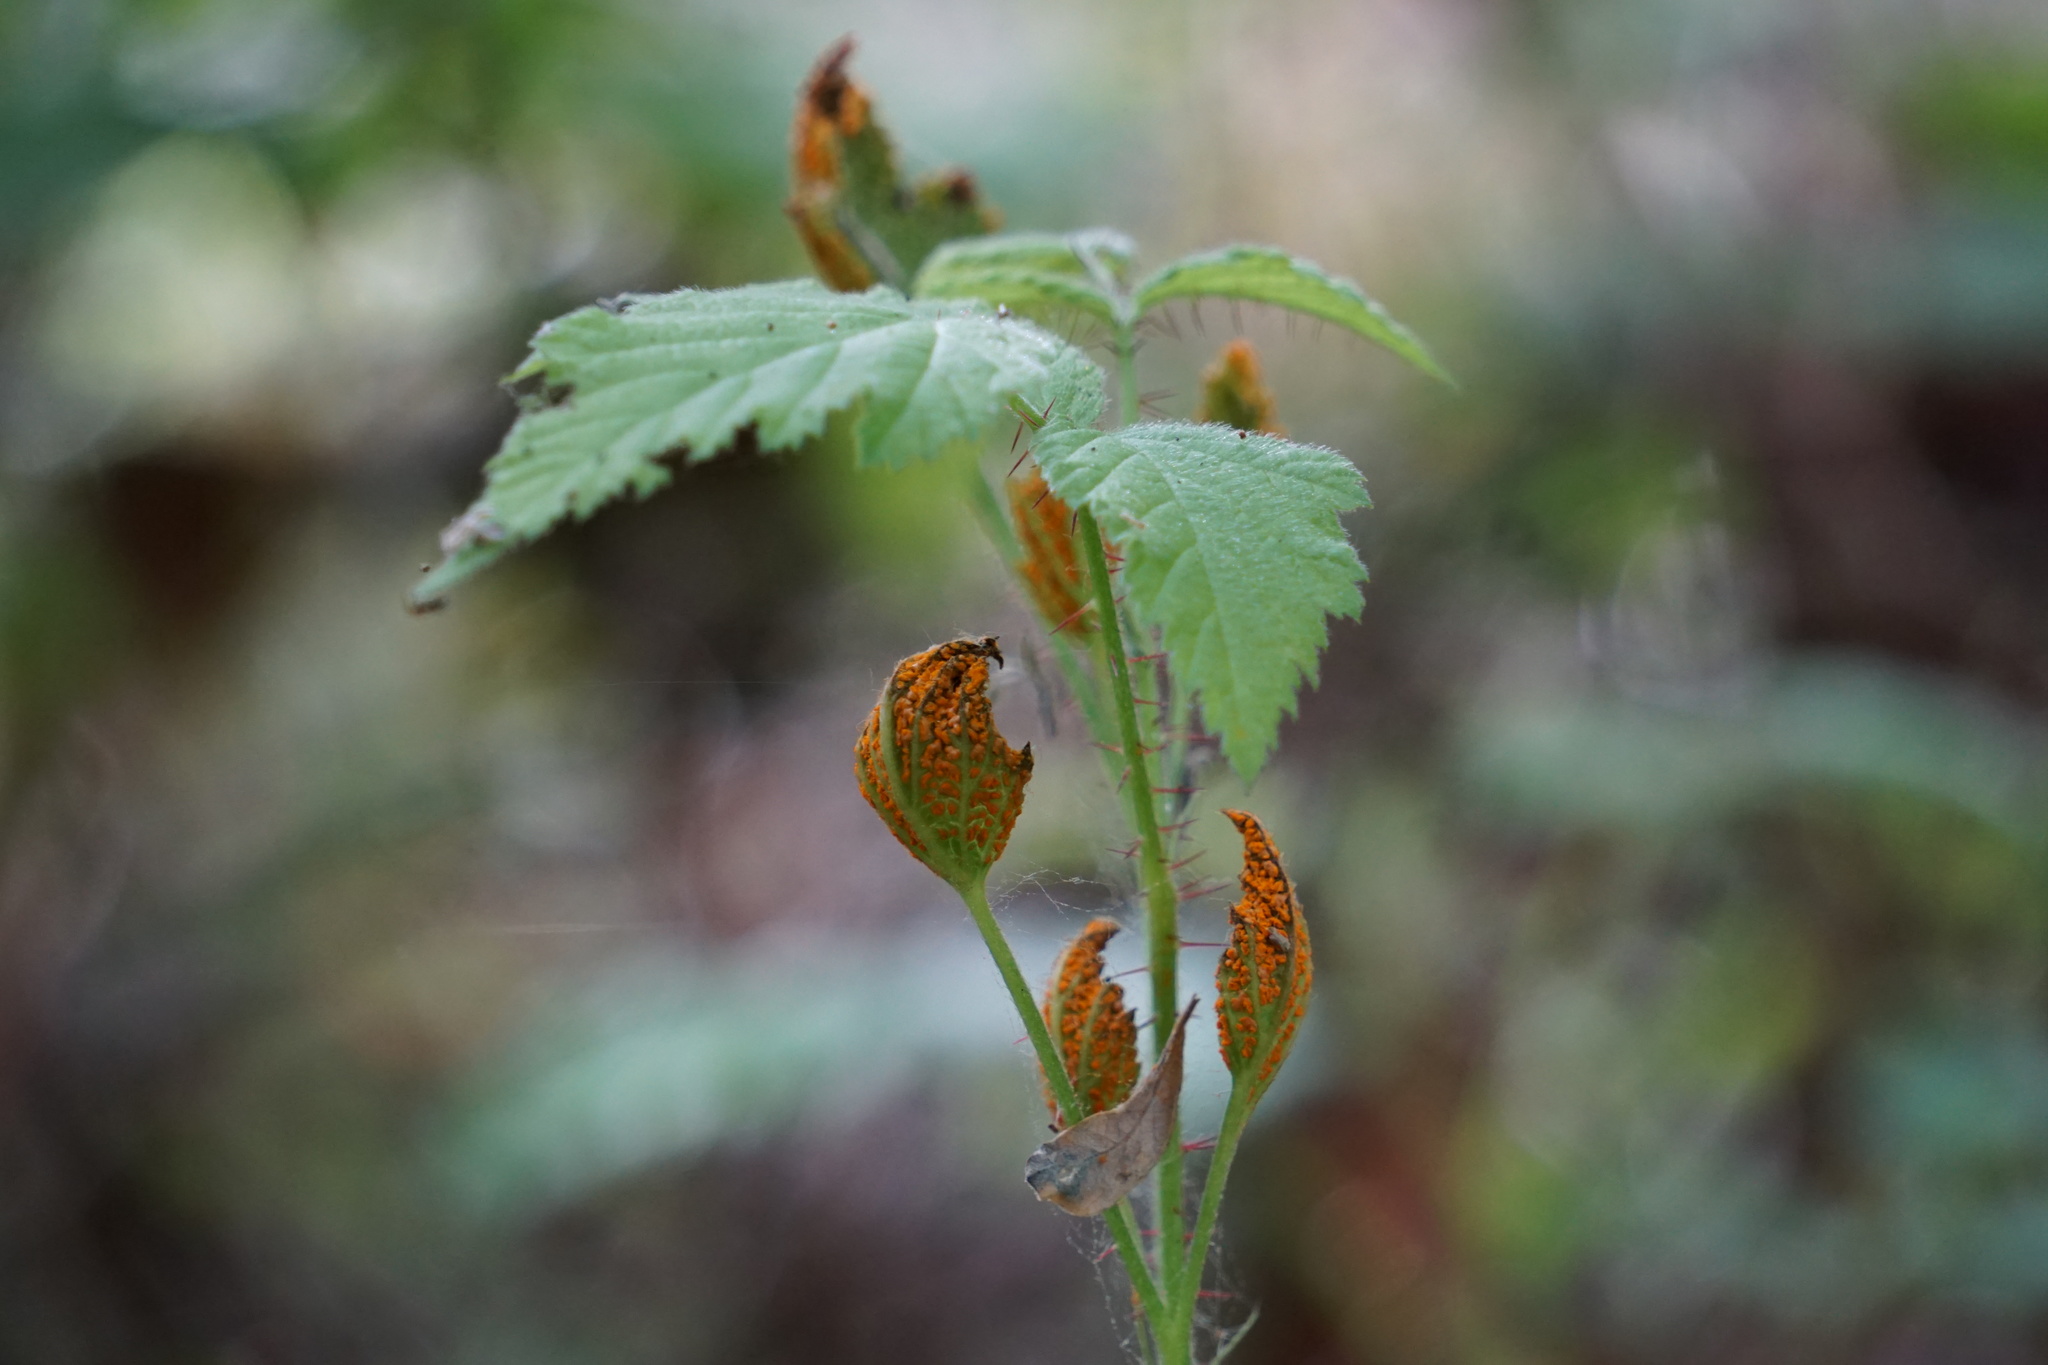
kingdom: Plantae
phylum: Tracheophyta
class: Magnoliopsida
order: Rosales
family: Rosaceae
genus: Rubus
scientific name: Rubus ursinus
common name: Pacific blackberry
